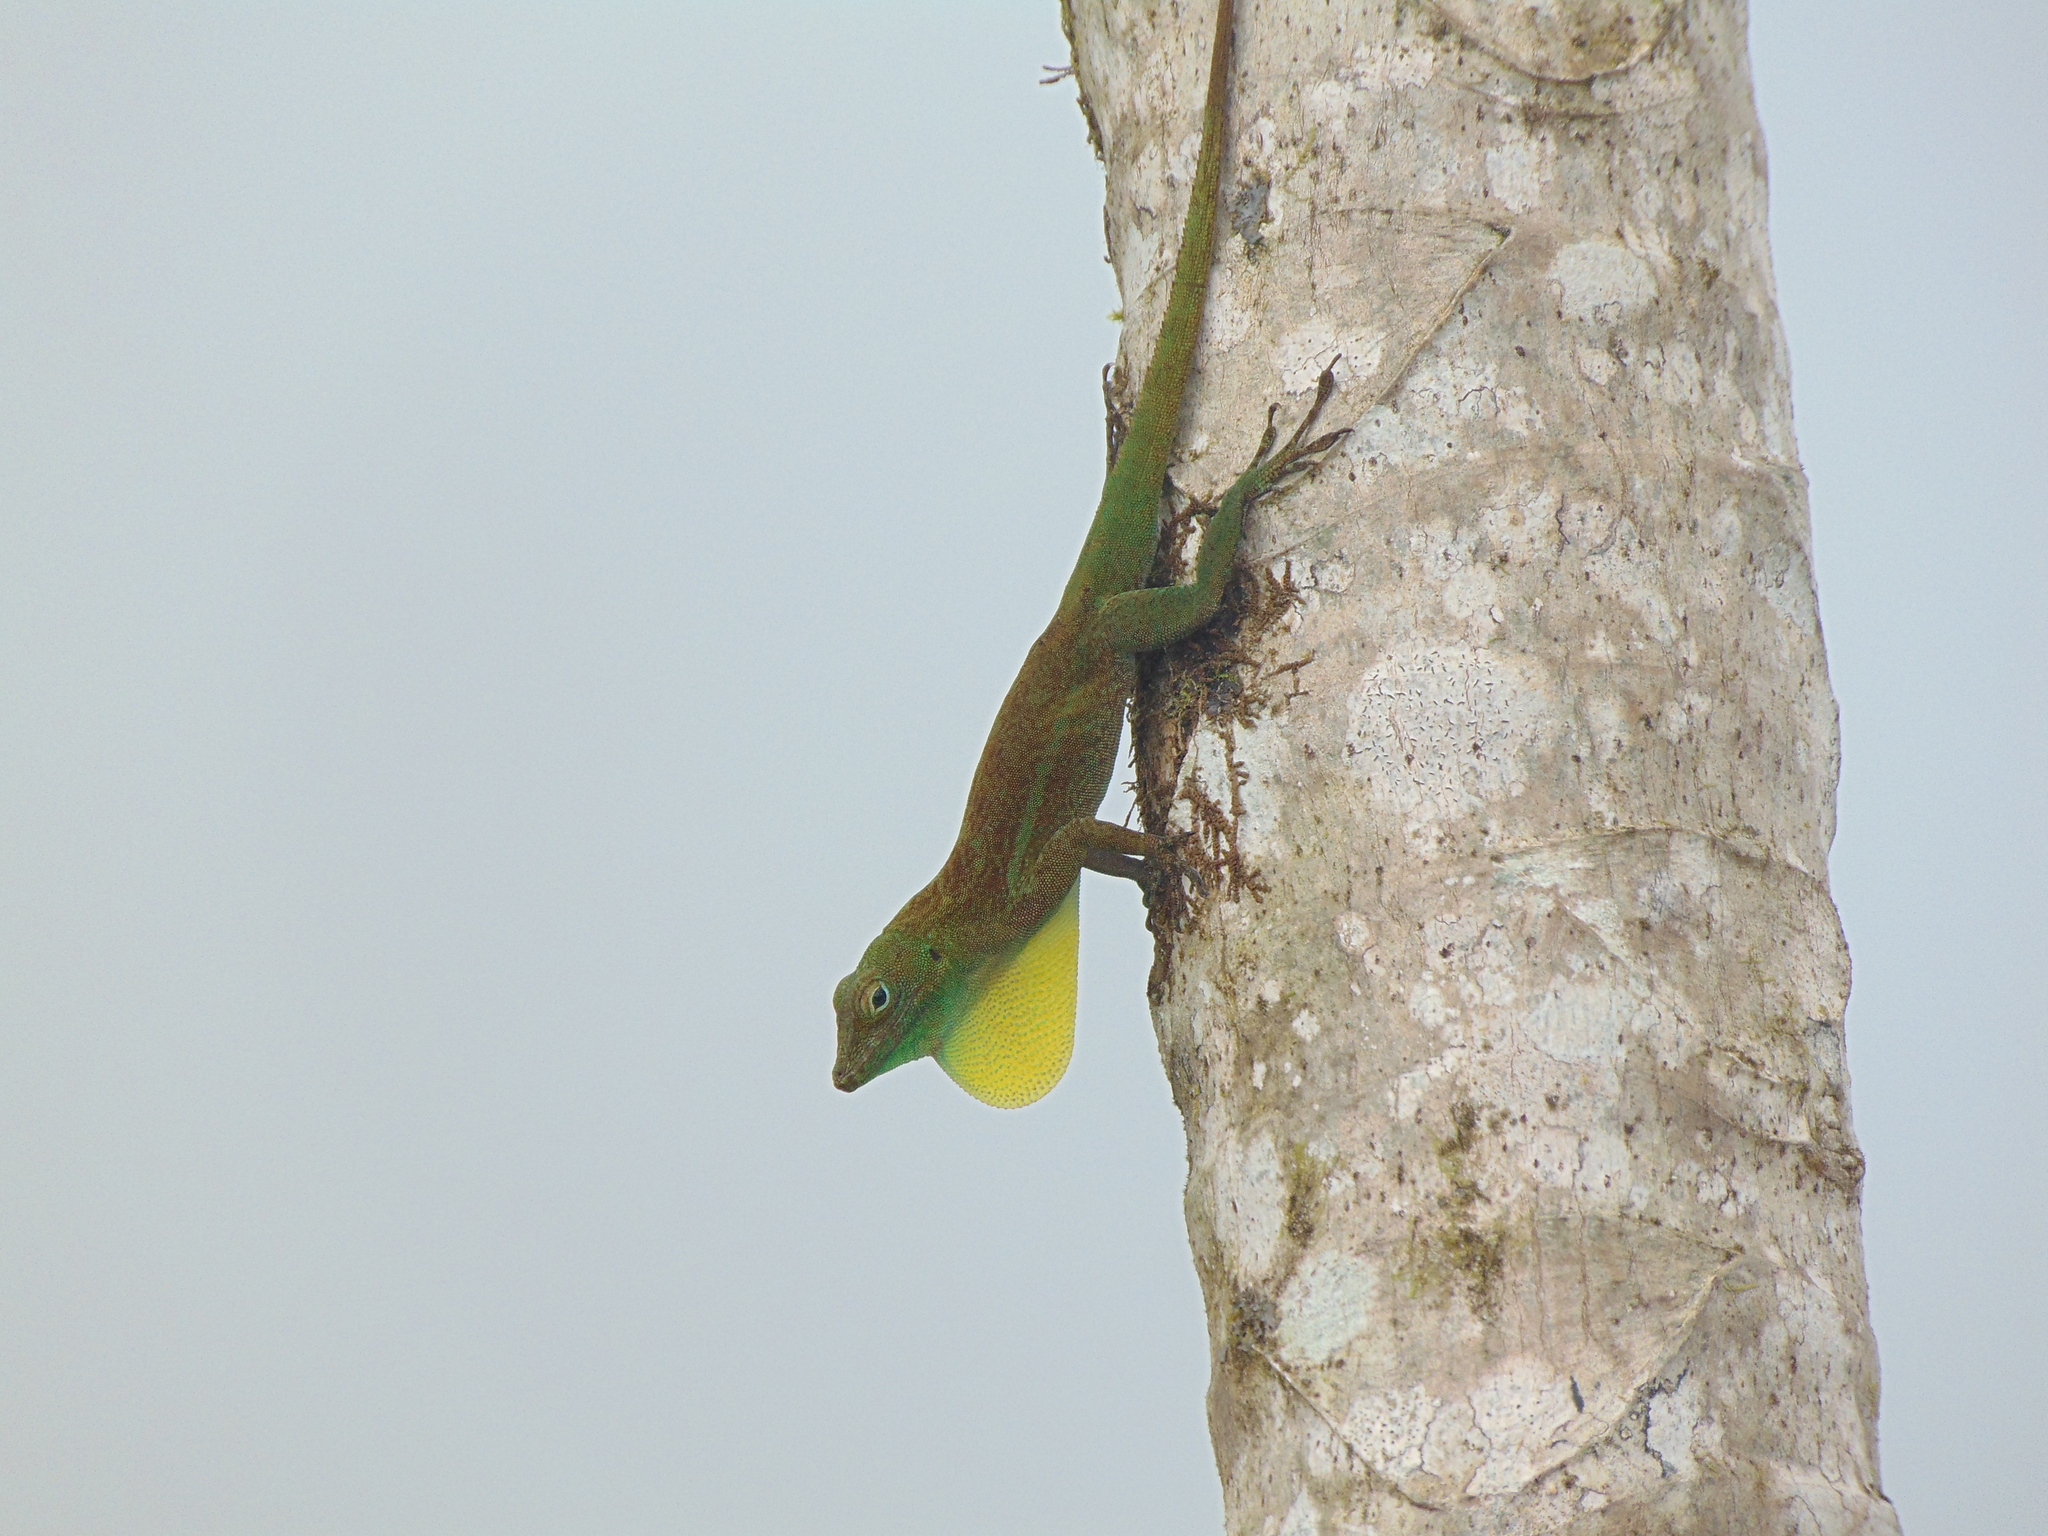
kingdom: Animalia
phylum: Chordata
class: Squamata
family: Dactyloidae
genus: Anolis
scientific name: Anolis evermanni
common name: Emerald anole
